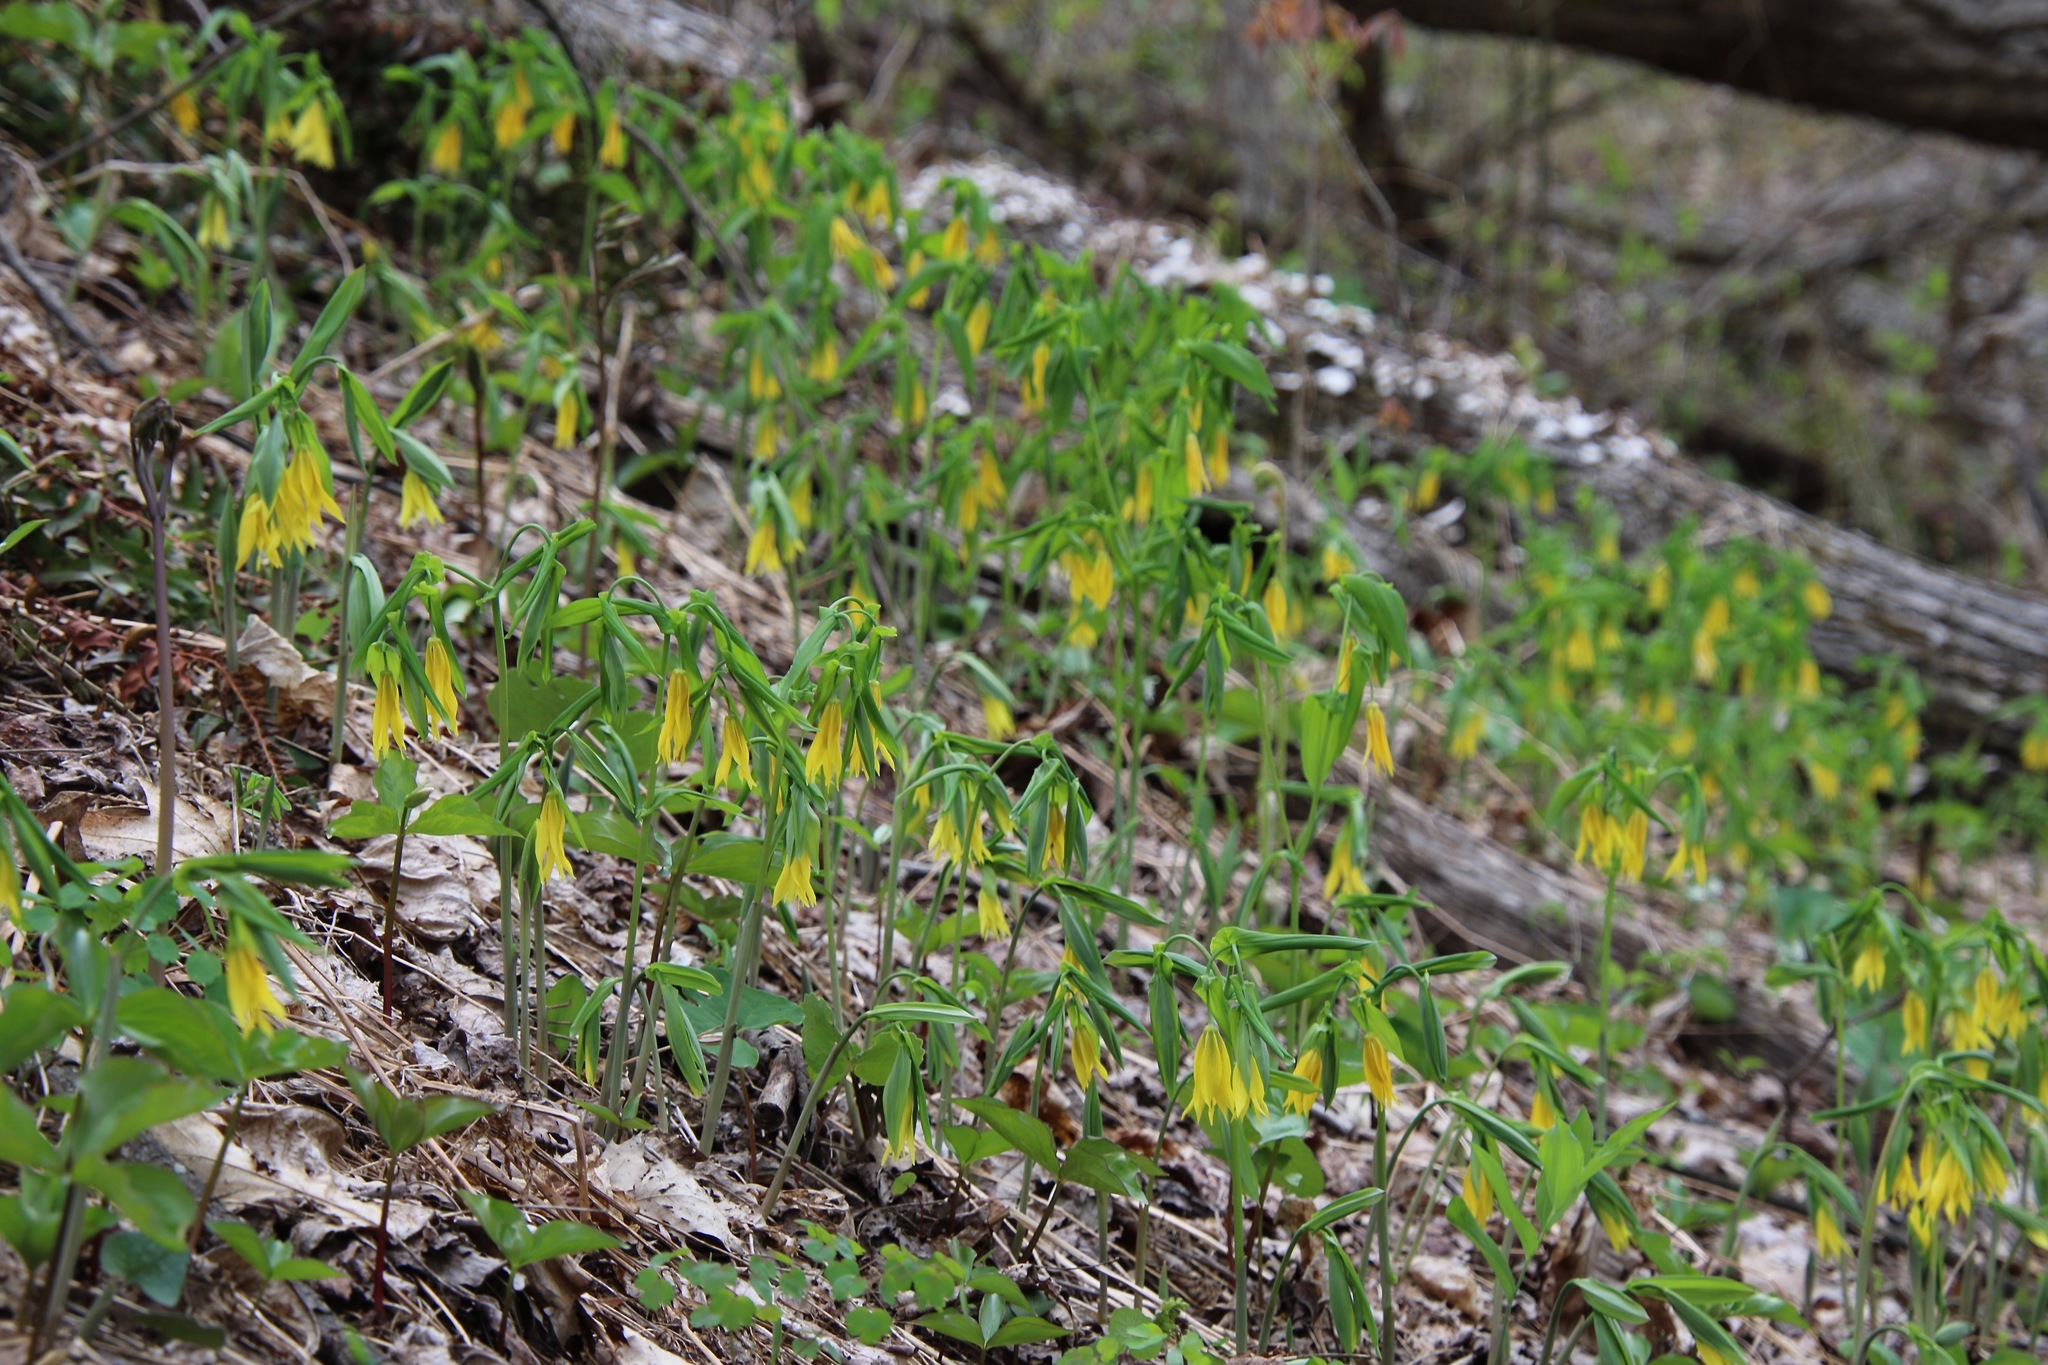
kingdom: Plantae
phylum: Tracheophyta
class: Liliopsida
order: Liliales
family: Colchicaceae
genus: Uvularia
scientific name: Uvularia grandiflora
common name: Bellwort
